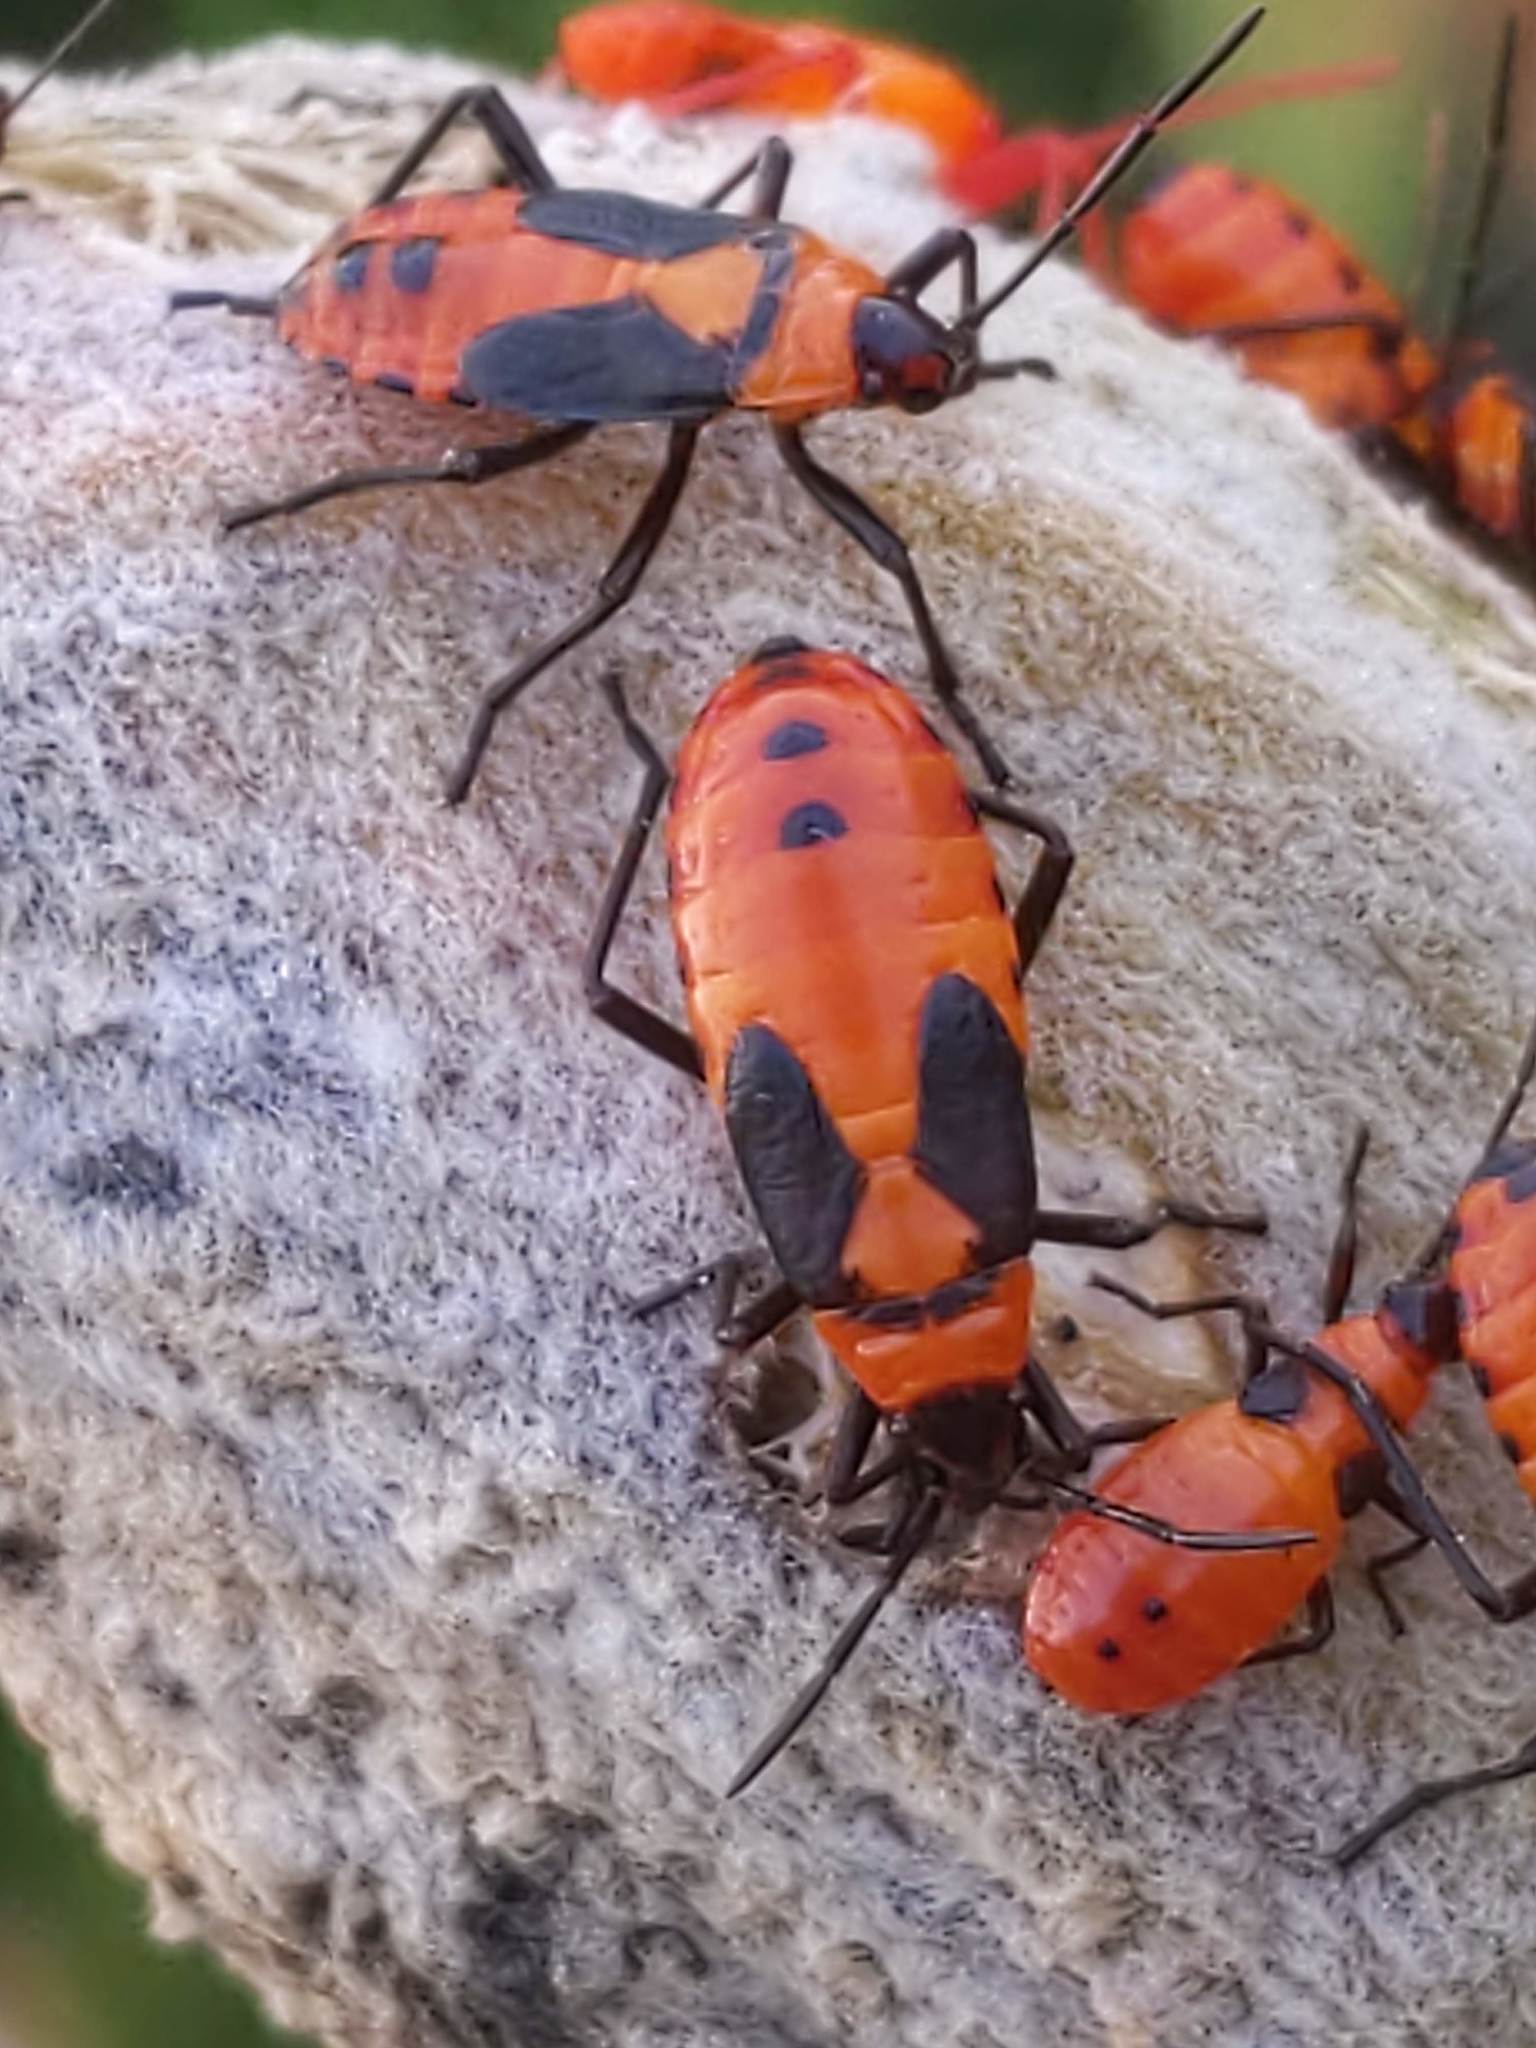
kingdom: Animalia
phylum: Arthropoda
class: Insecta
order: Hemiptera
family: Lygaeidae
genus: Oncopeltus
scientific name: Oncopeltus fasciatus
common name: Large milkweed bug
